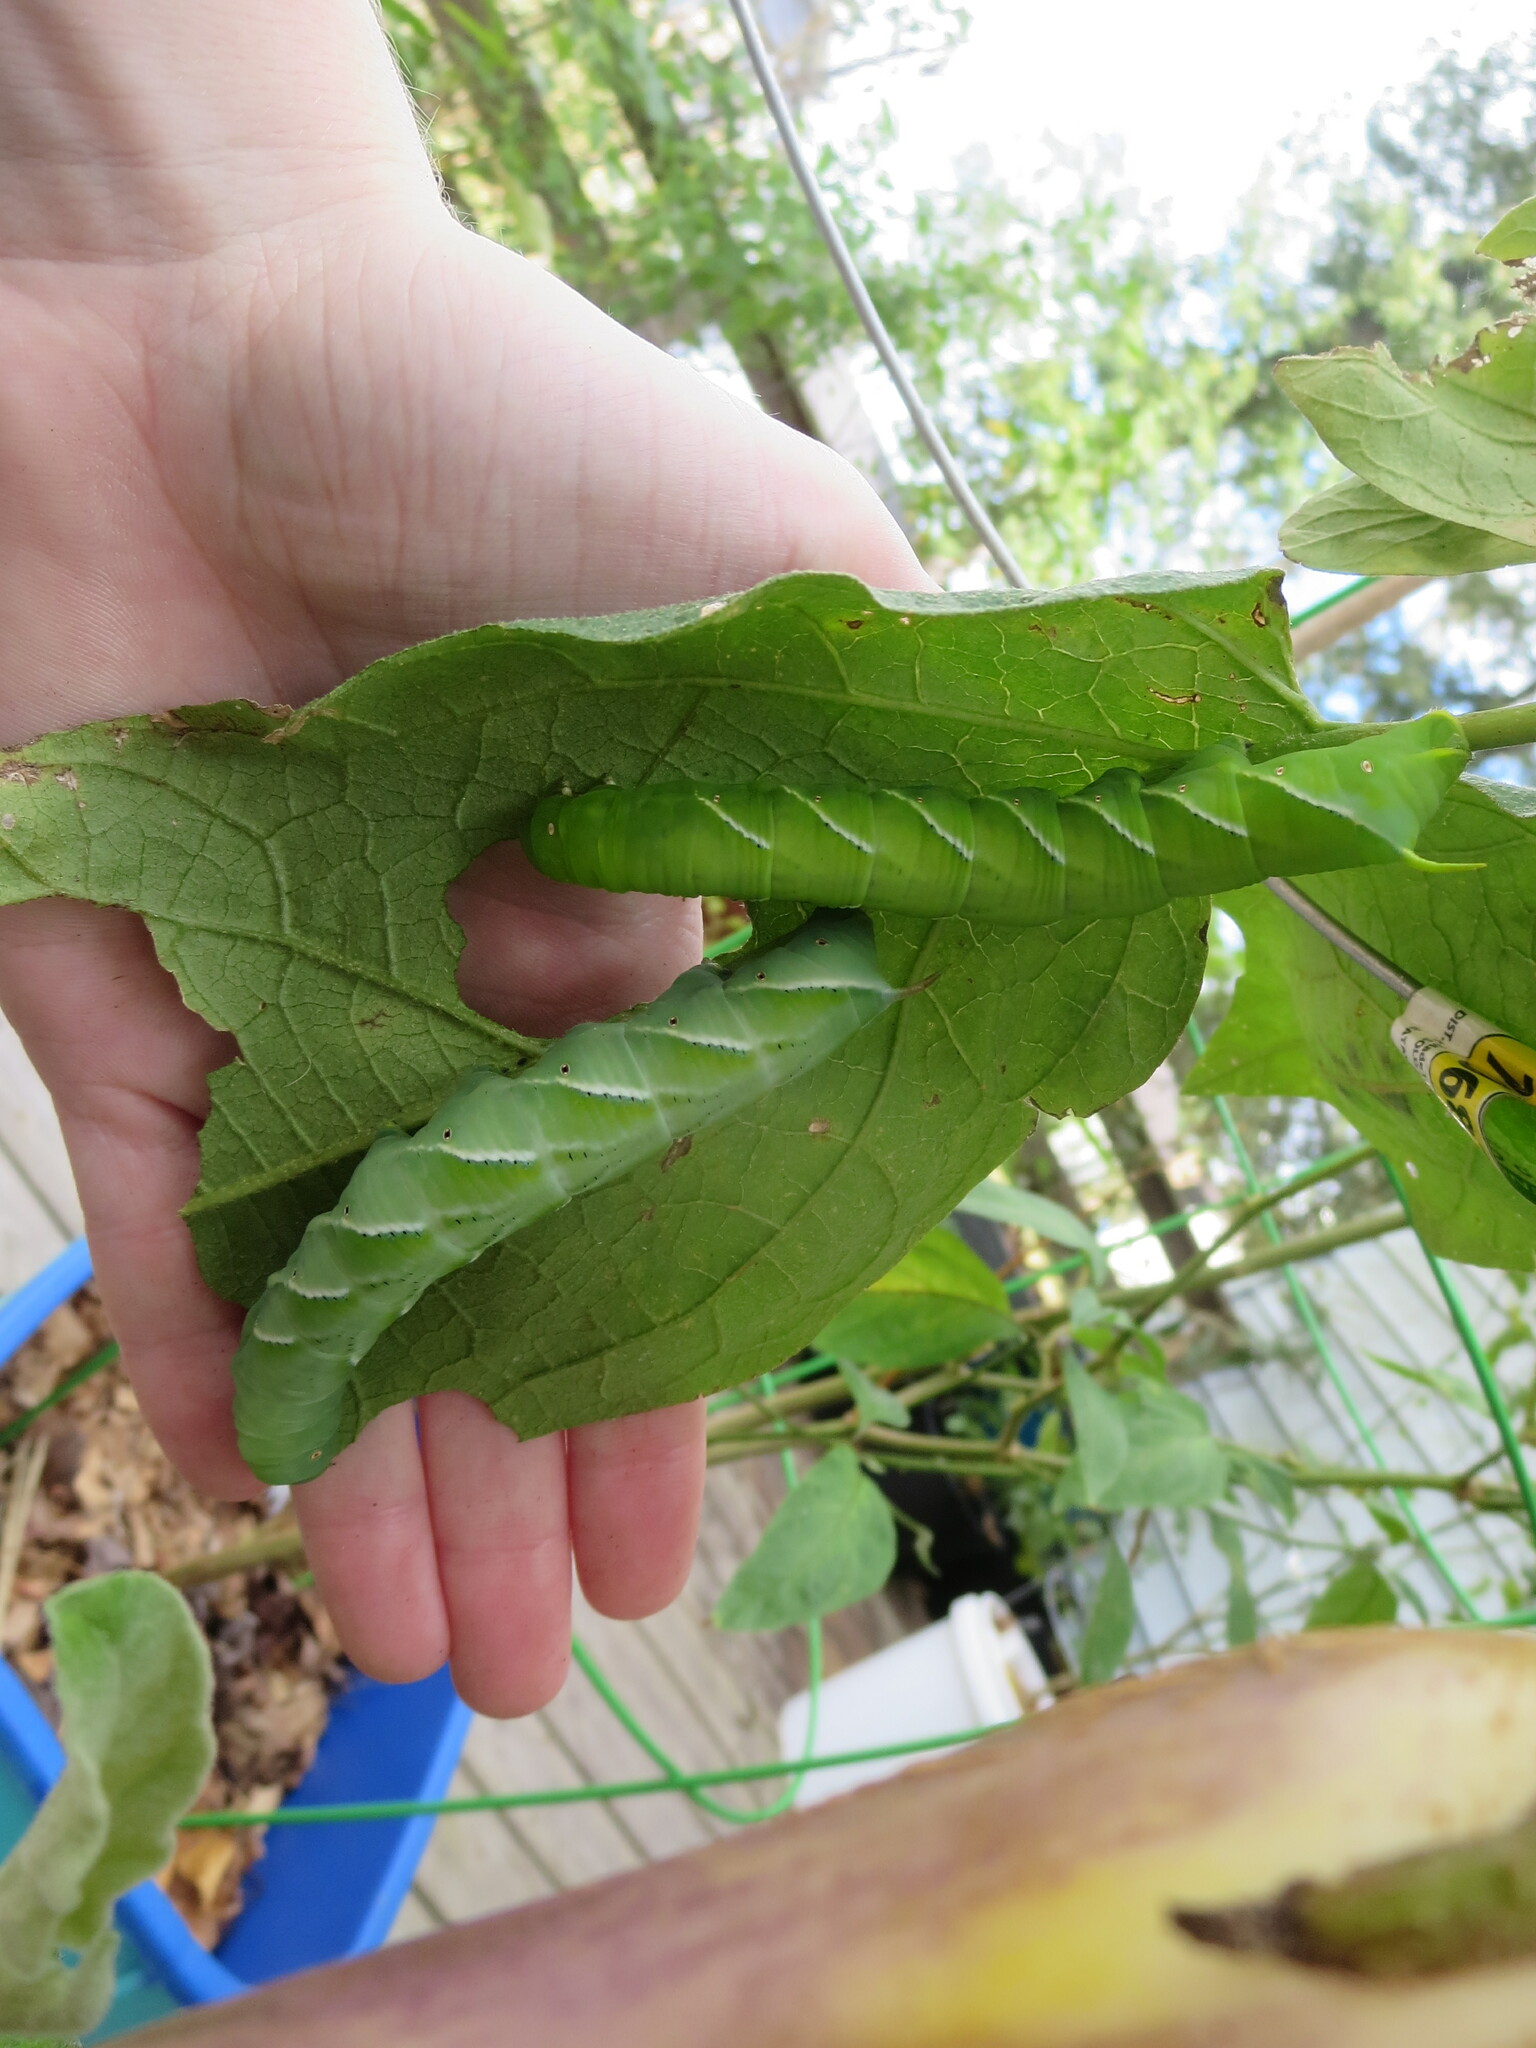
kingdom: Animalia
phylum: Arthropoda
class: Insecta
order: Lepidoptera
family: Sphingidae
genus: Manduca
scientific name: Manduca sexta
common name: Carolina sphinx
